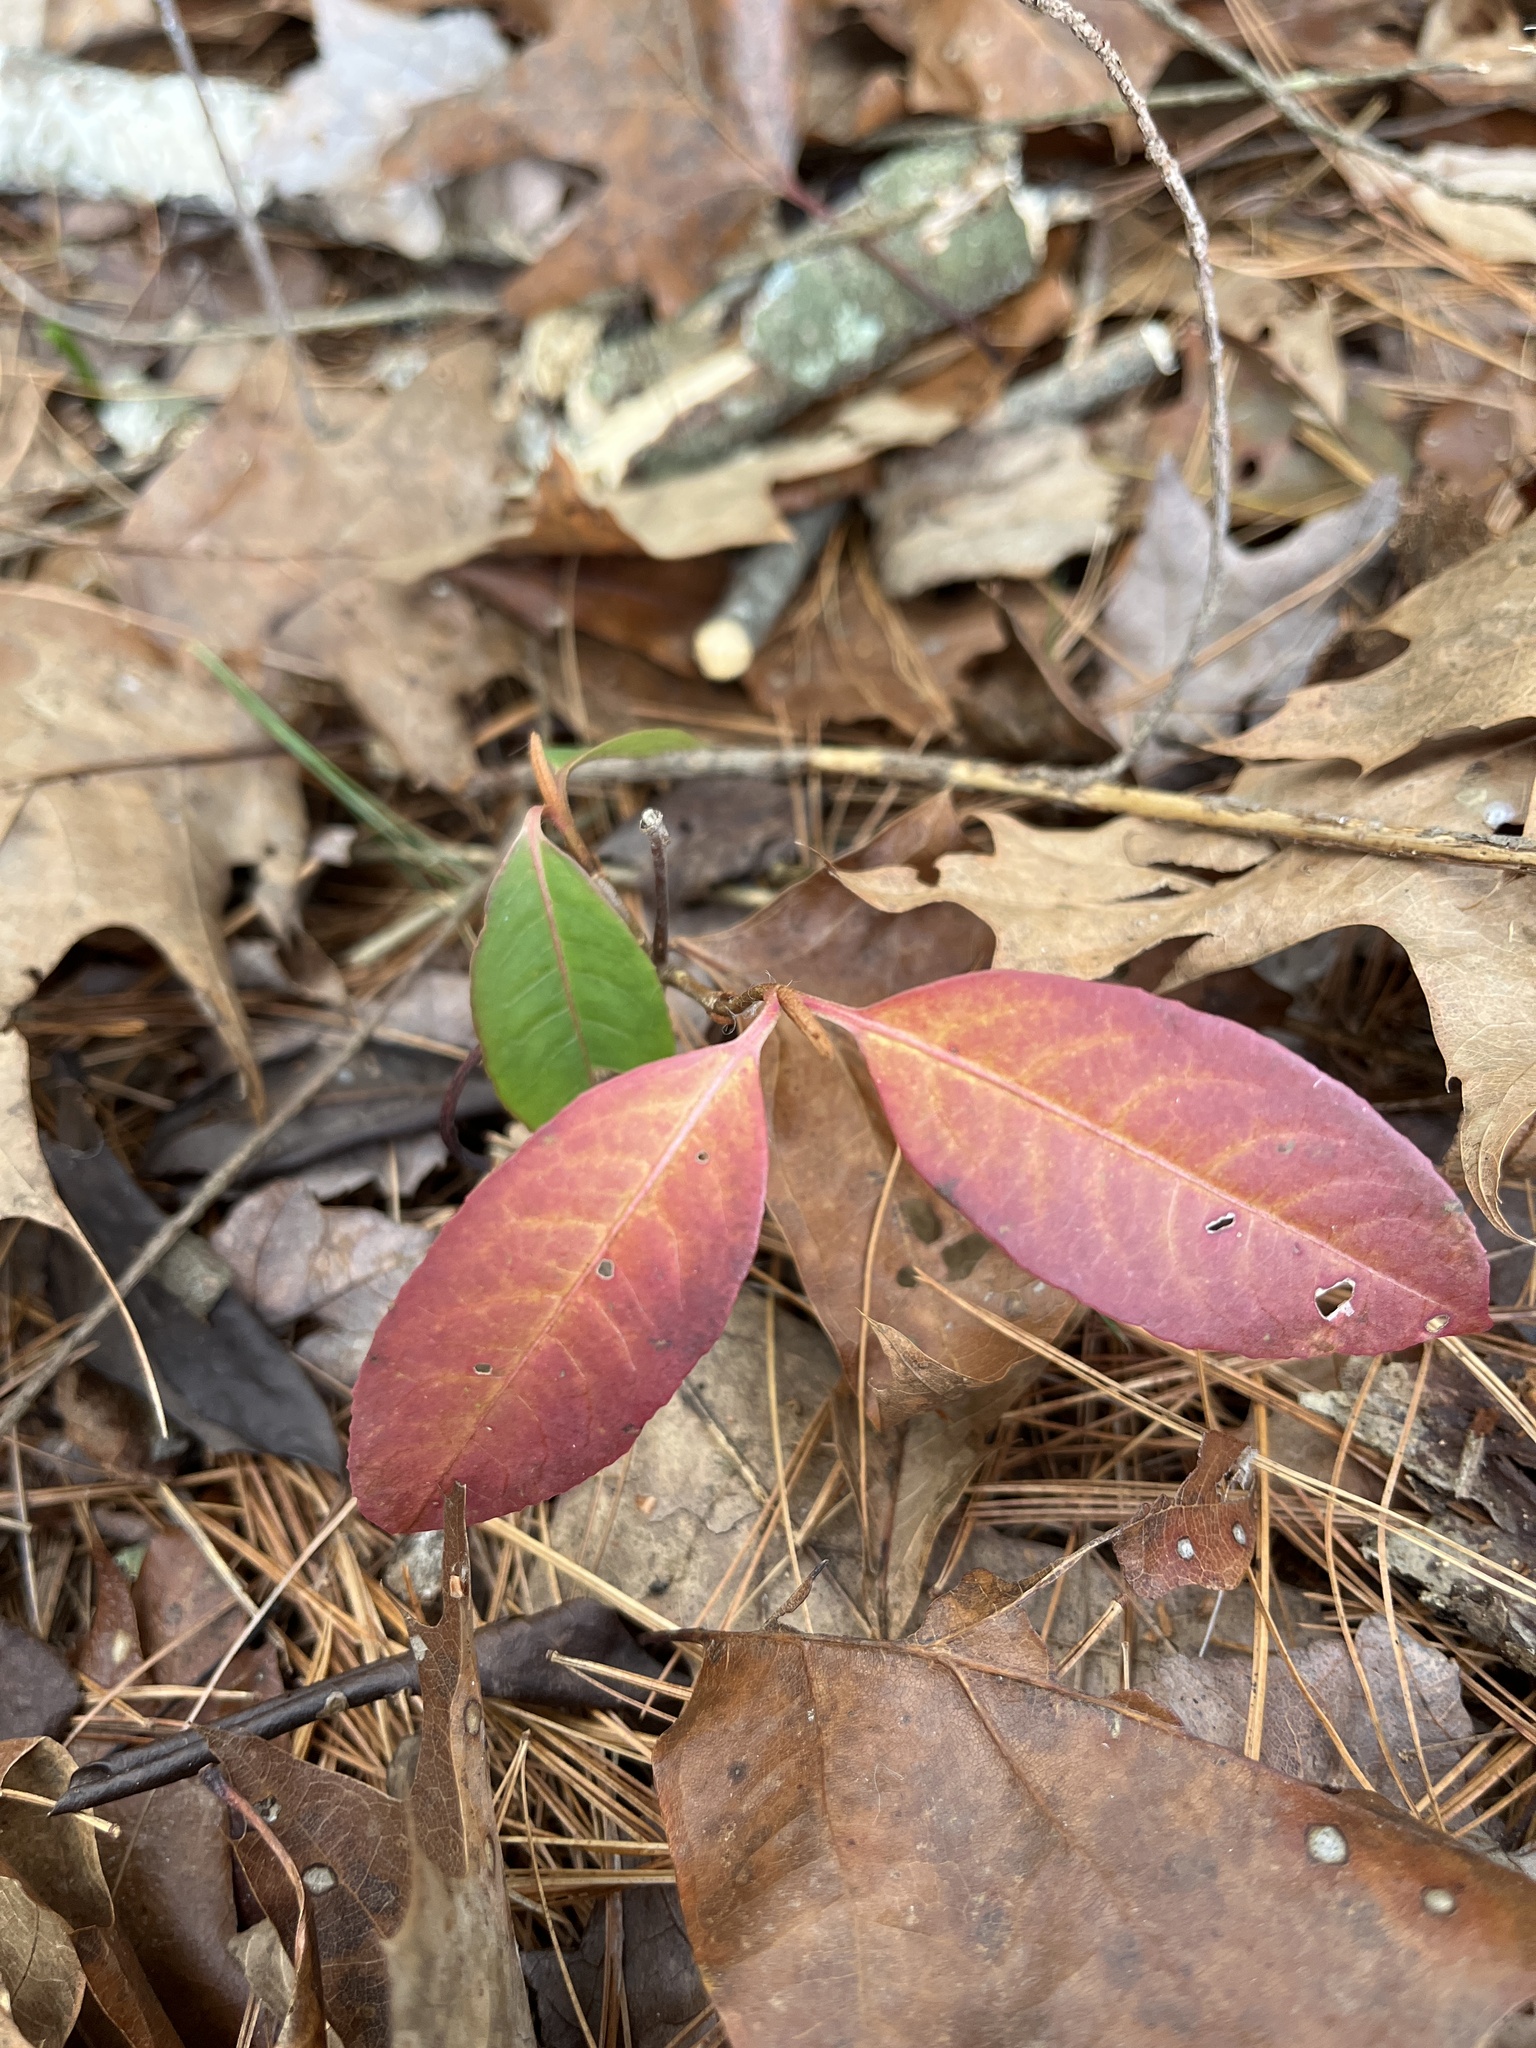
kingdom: Plantae
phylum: Tracheophyta
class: Magnoliopsida
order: Dipsacales
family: Viburnaceae
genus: Viburnum
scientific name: Viburnum cassinoides
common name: Swamp haw
